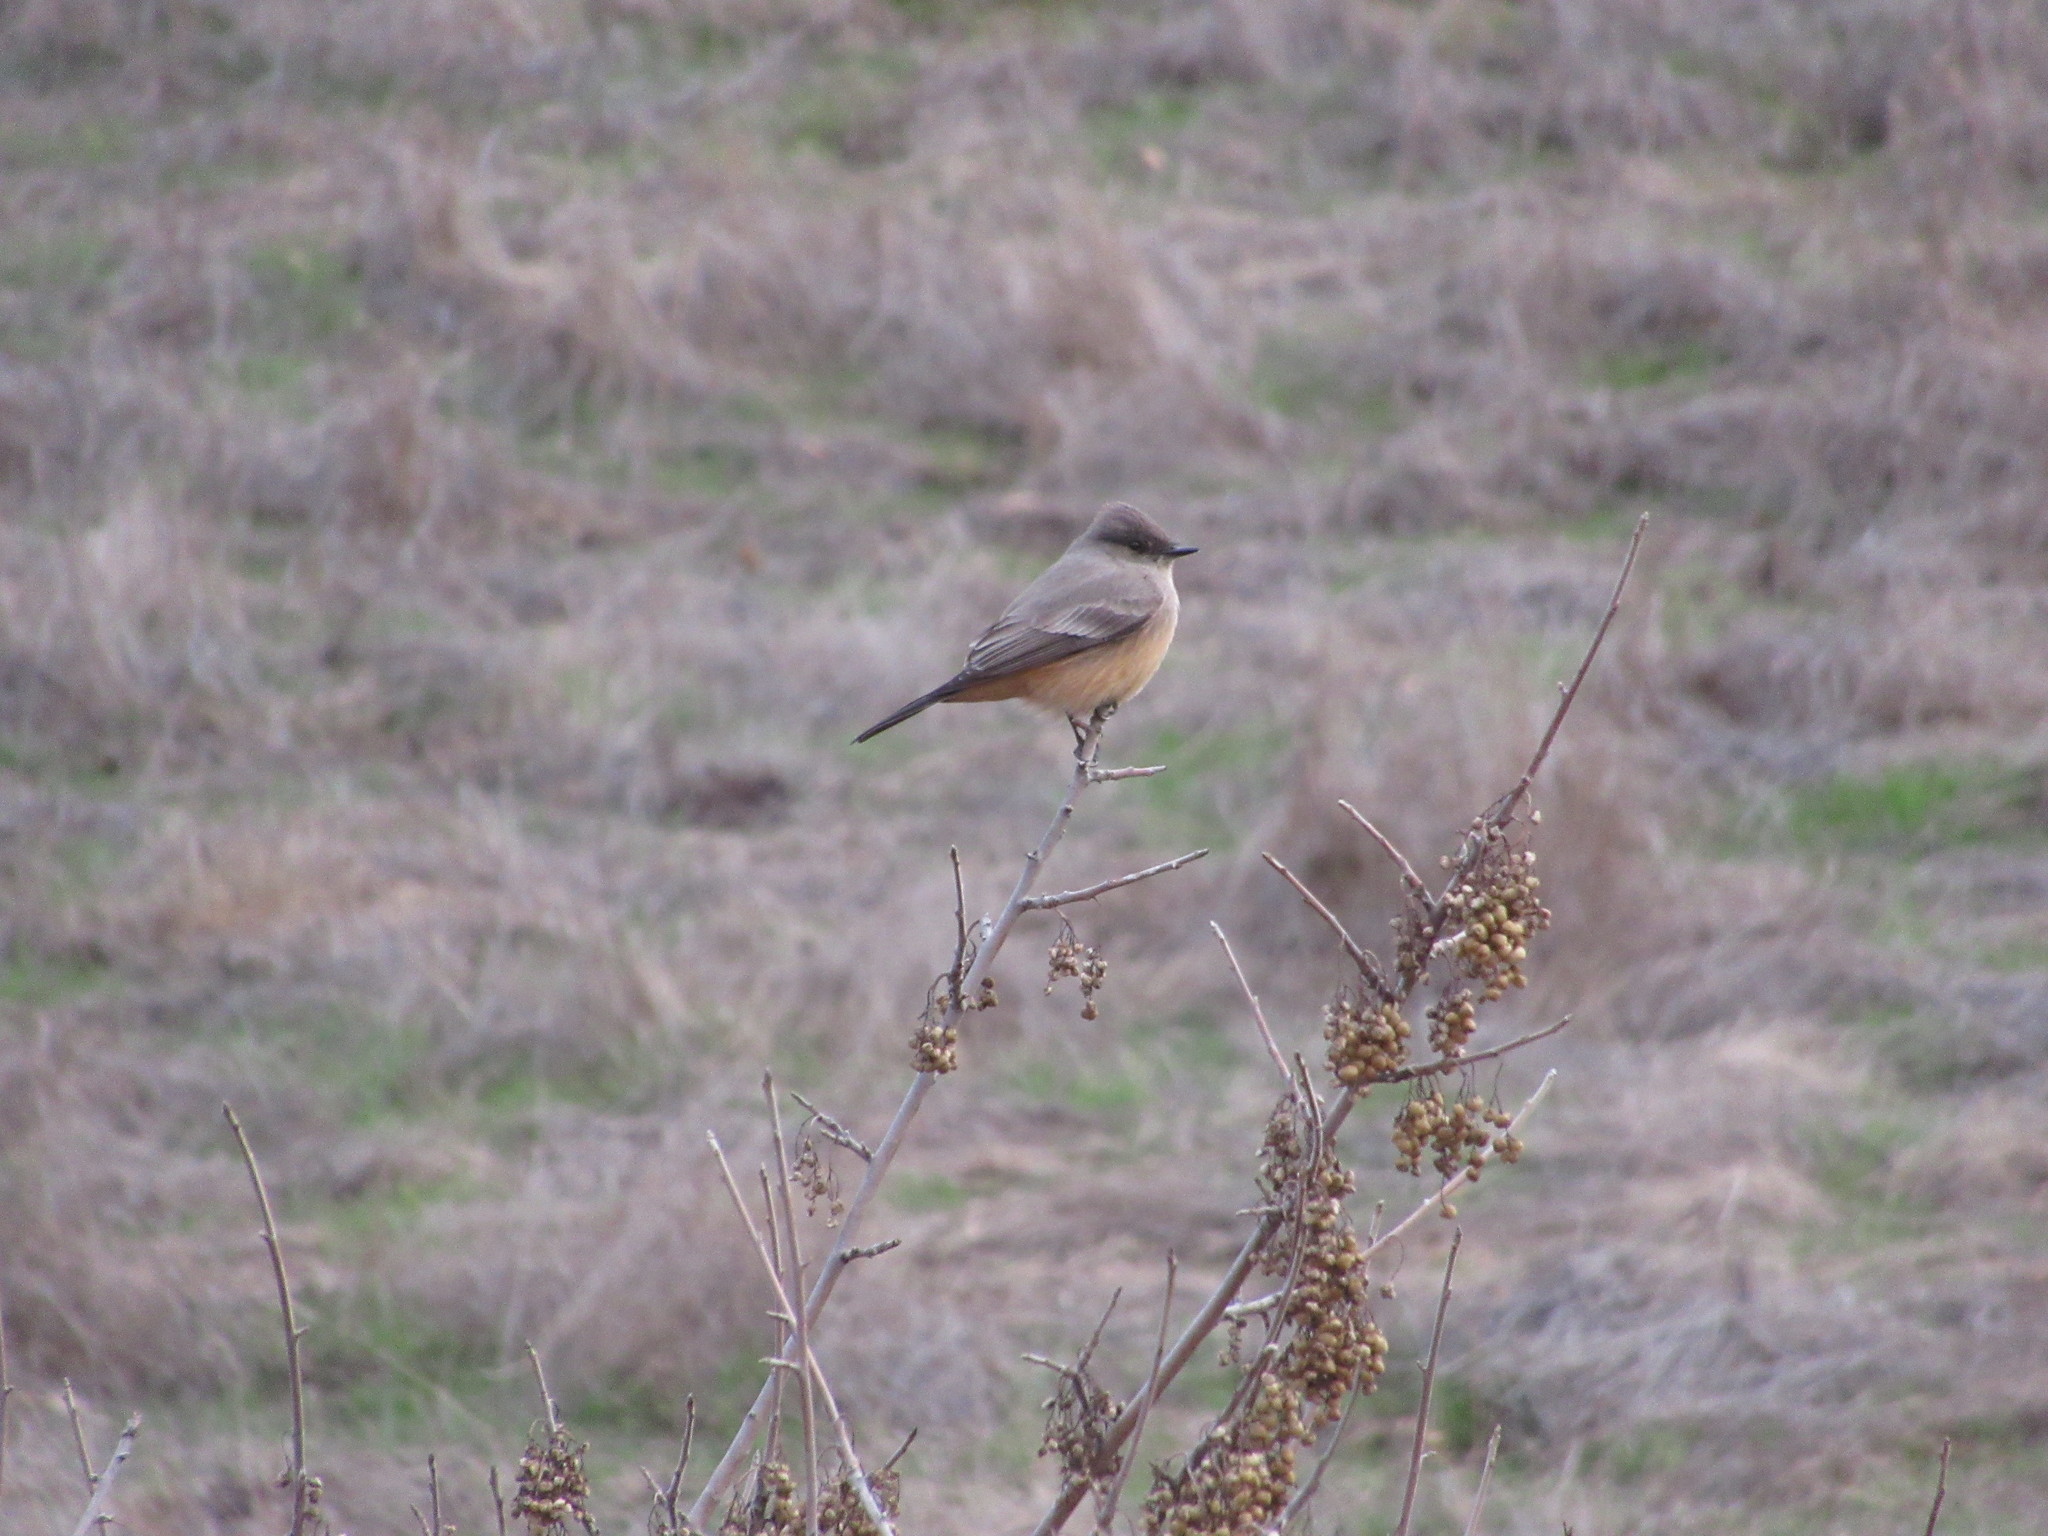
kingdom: Animalia
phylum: Chordata
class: Aves
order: Passeriformes
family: Tyrannidae
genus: Sayornis
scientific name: Sayornis saya
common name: Say's phoebe
